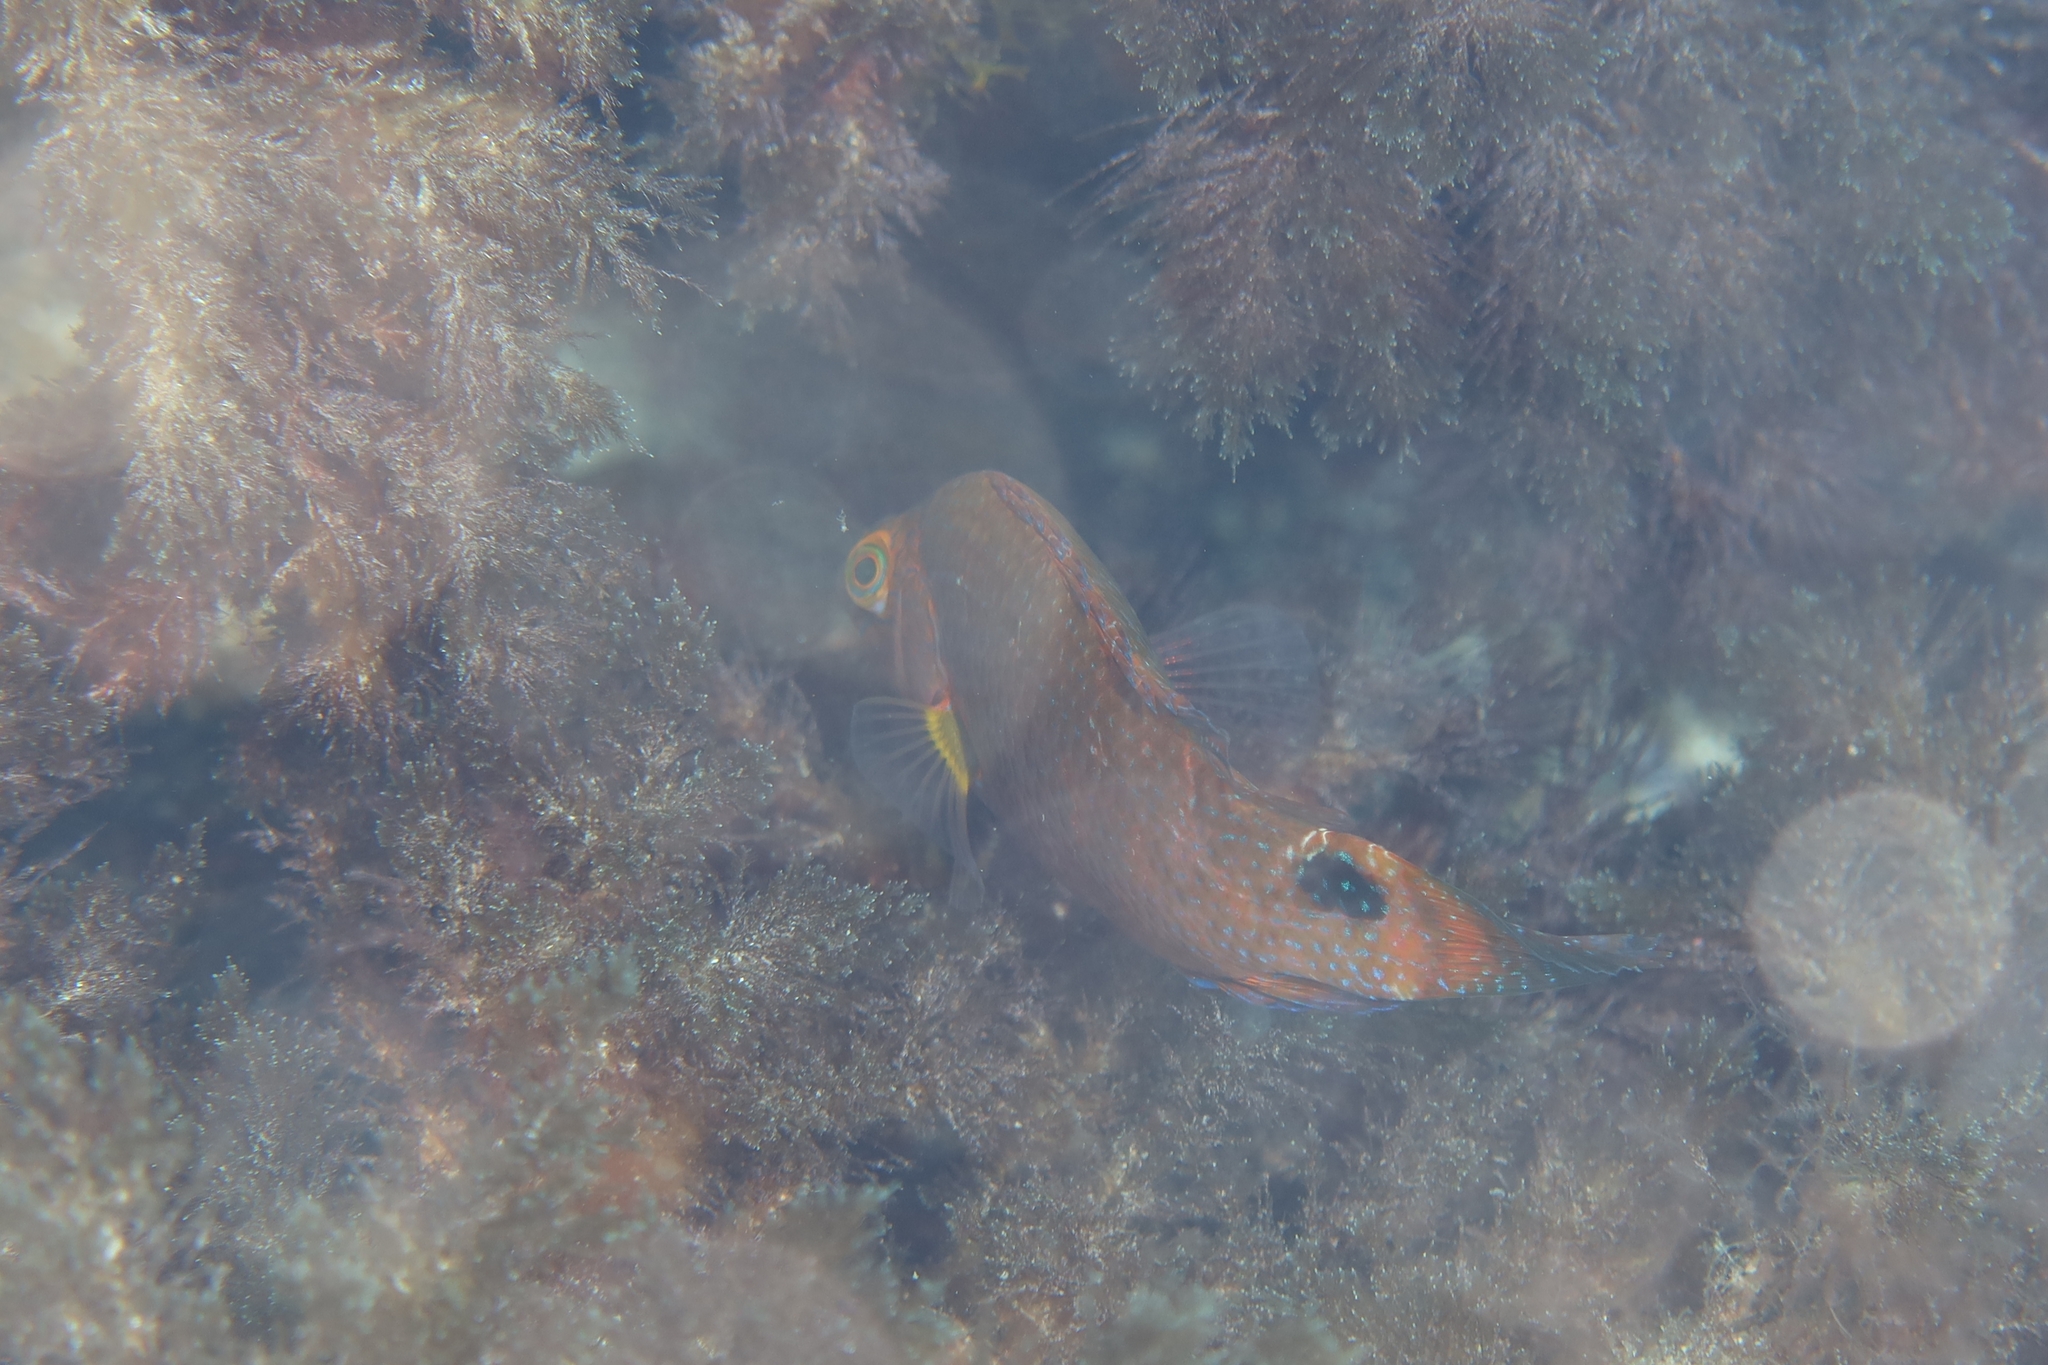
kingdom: Animalia
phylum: Chordata
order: Perciformes
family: Labridae
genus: Symphodus
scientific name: Symphodus mediterraneus
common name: Axillary wrasse
